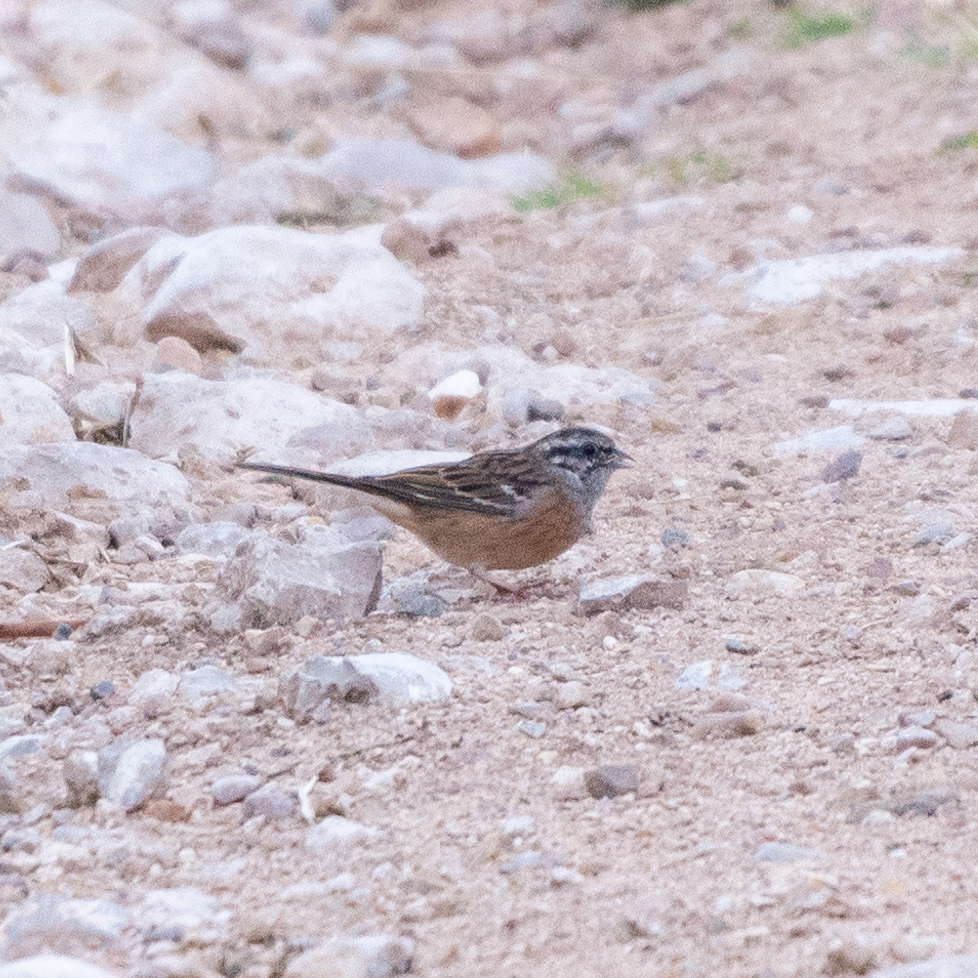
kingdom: Animalia
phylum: Chordata
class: Aves
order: Passeriformes
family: Emberizidae
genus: Emberiza
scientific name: Emberiza cia
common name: Rock bunting
